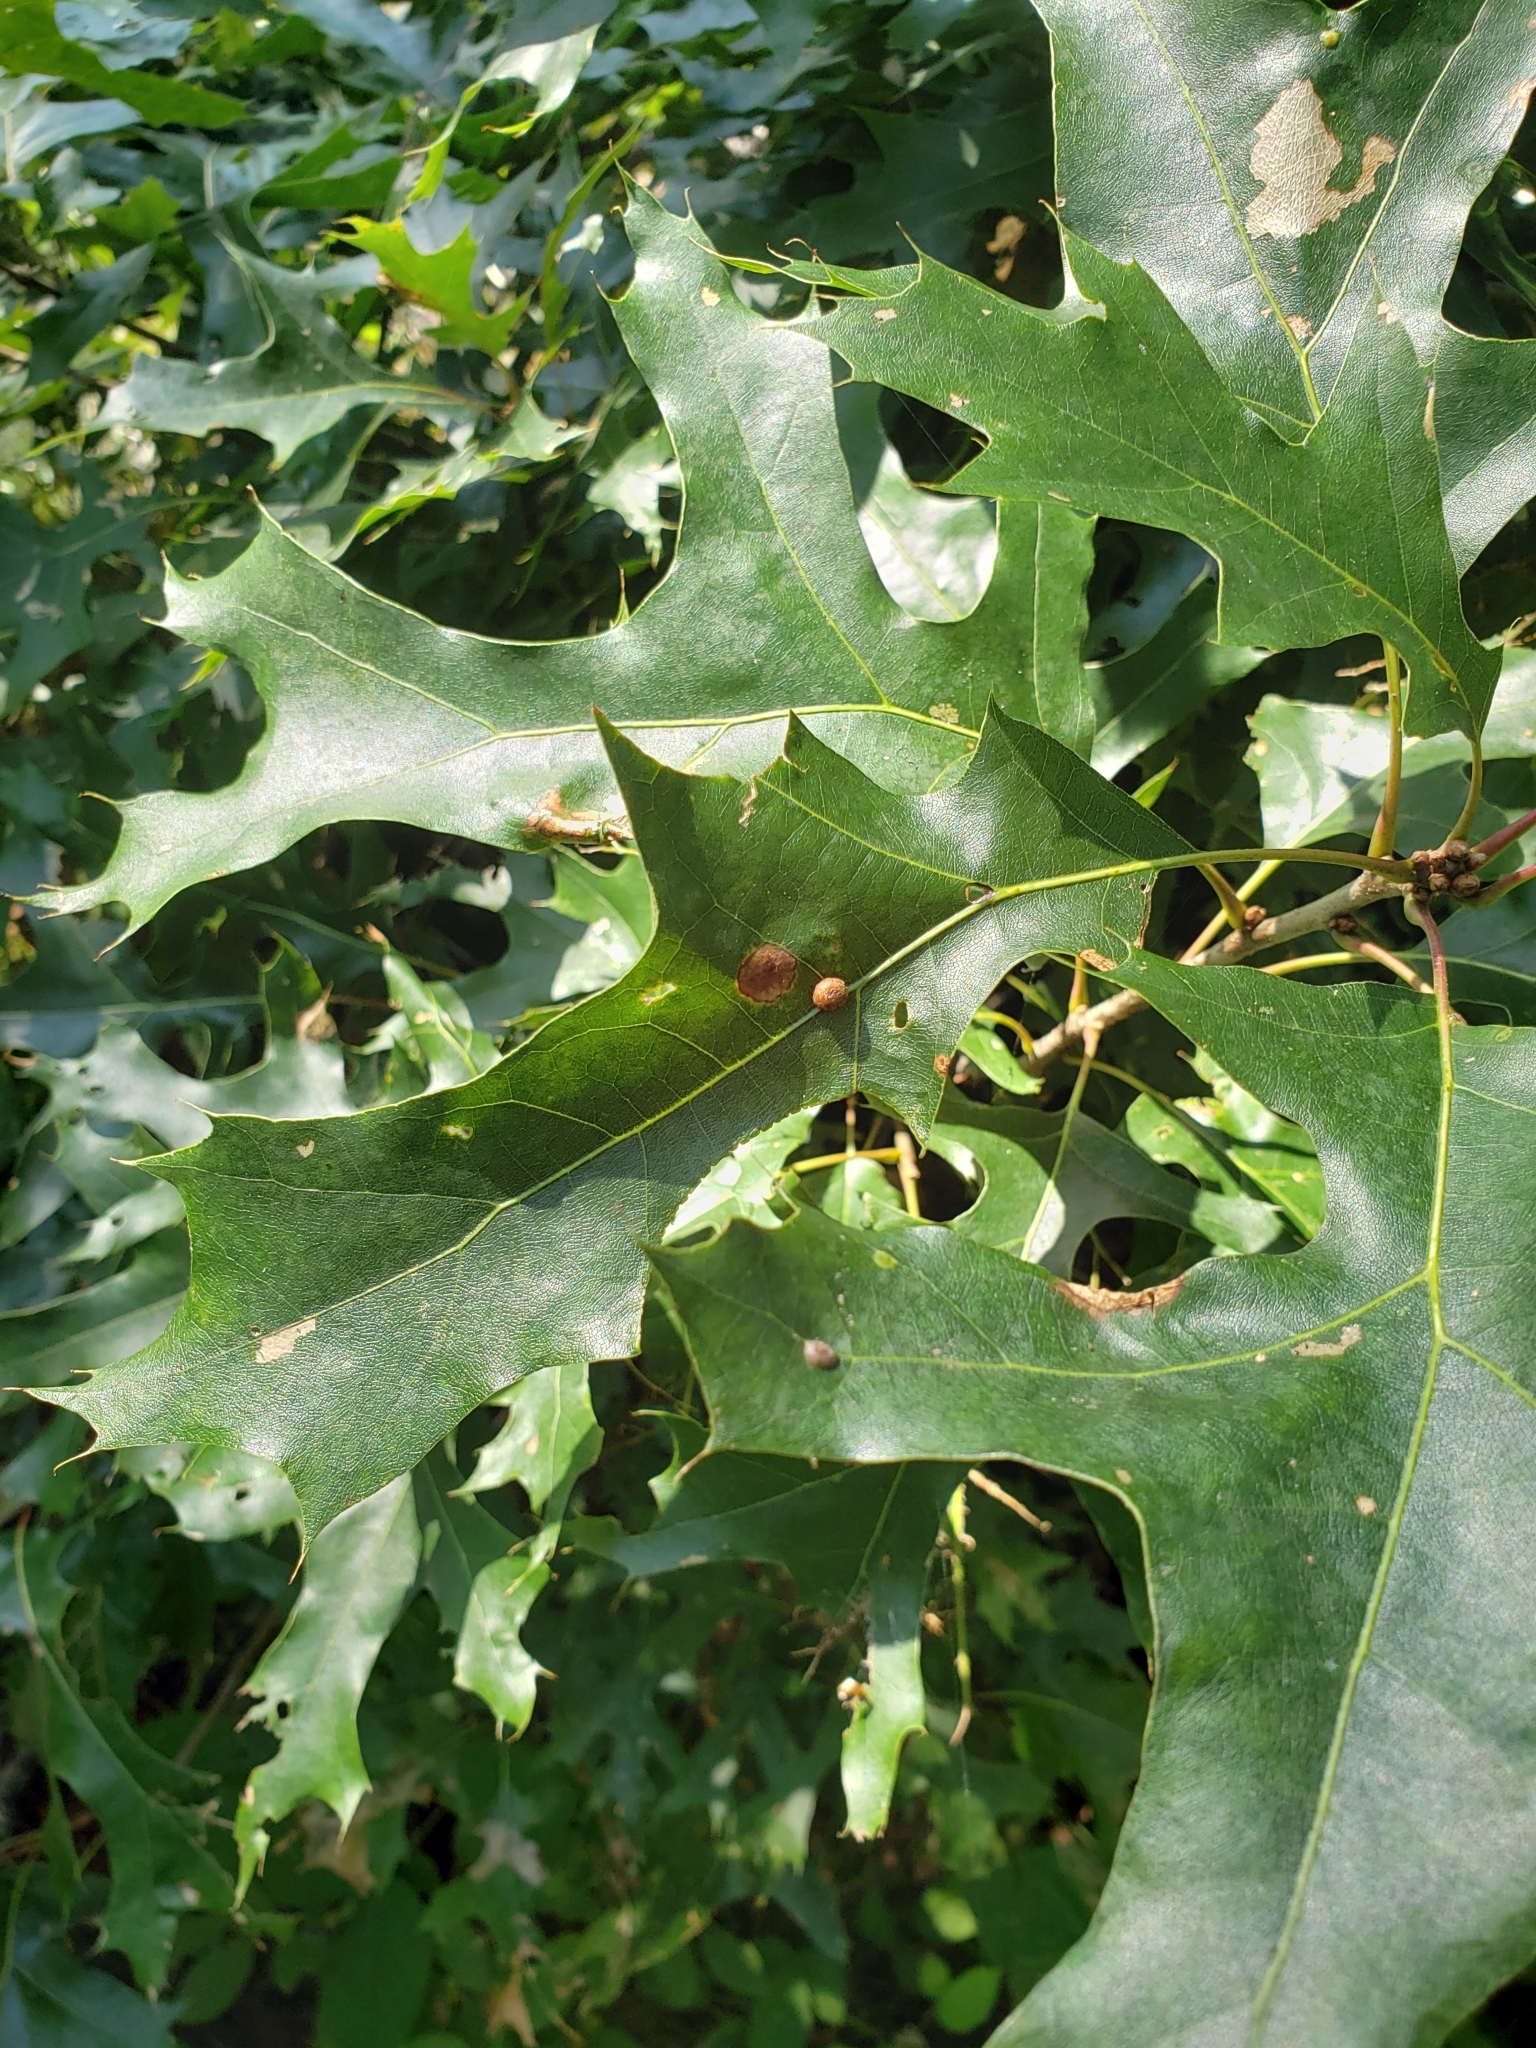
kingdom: Animalia
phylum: Arthropoda
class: Insecta
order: Diptera
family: Cecidomyiidae
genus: Polystepha
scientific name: Polystepha pilulae
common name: Oak leaf gall midge
